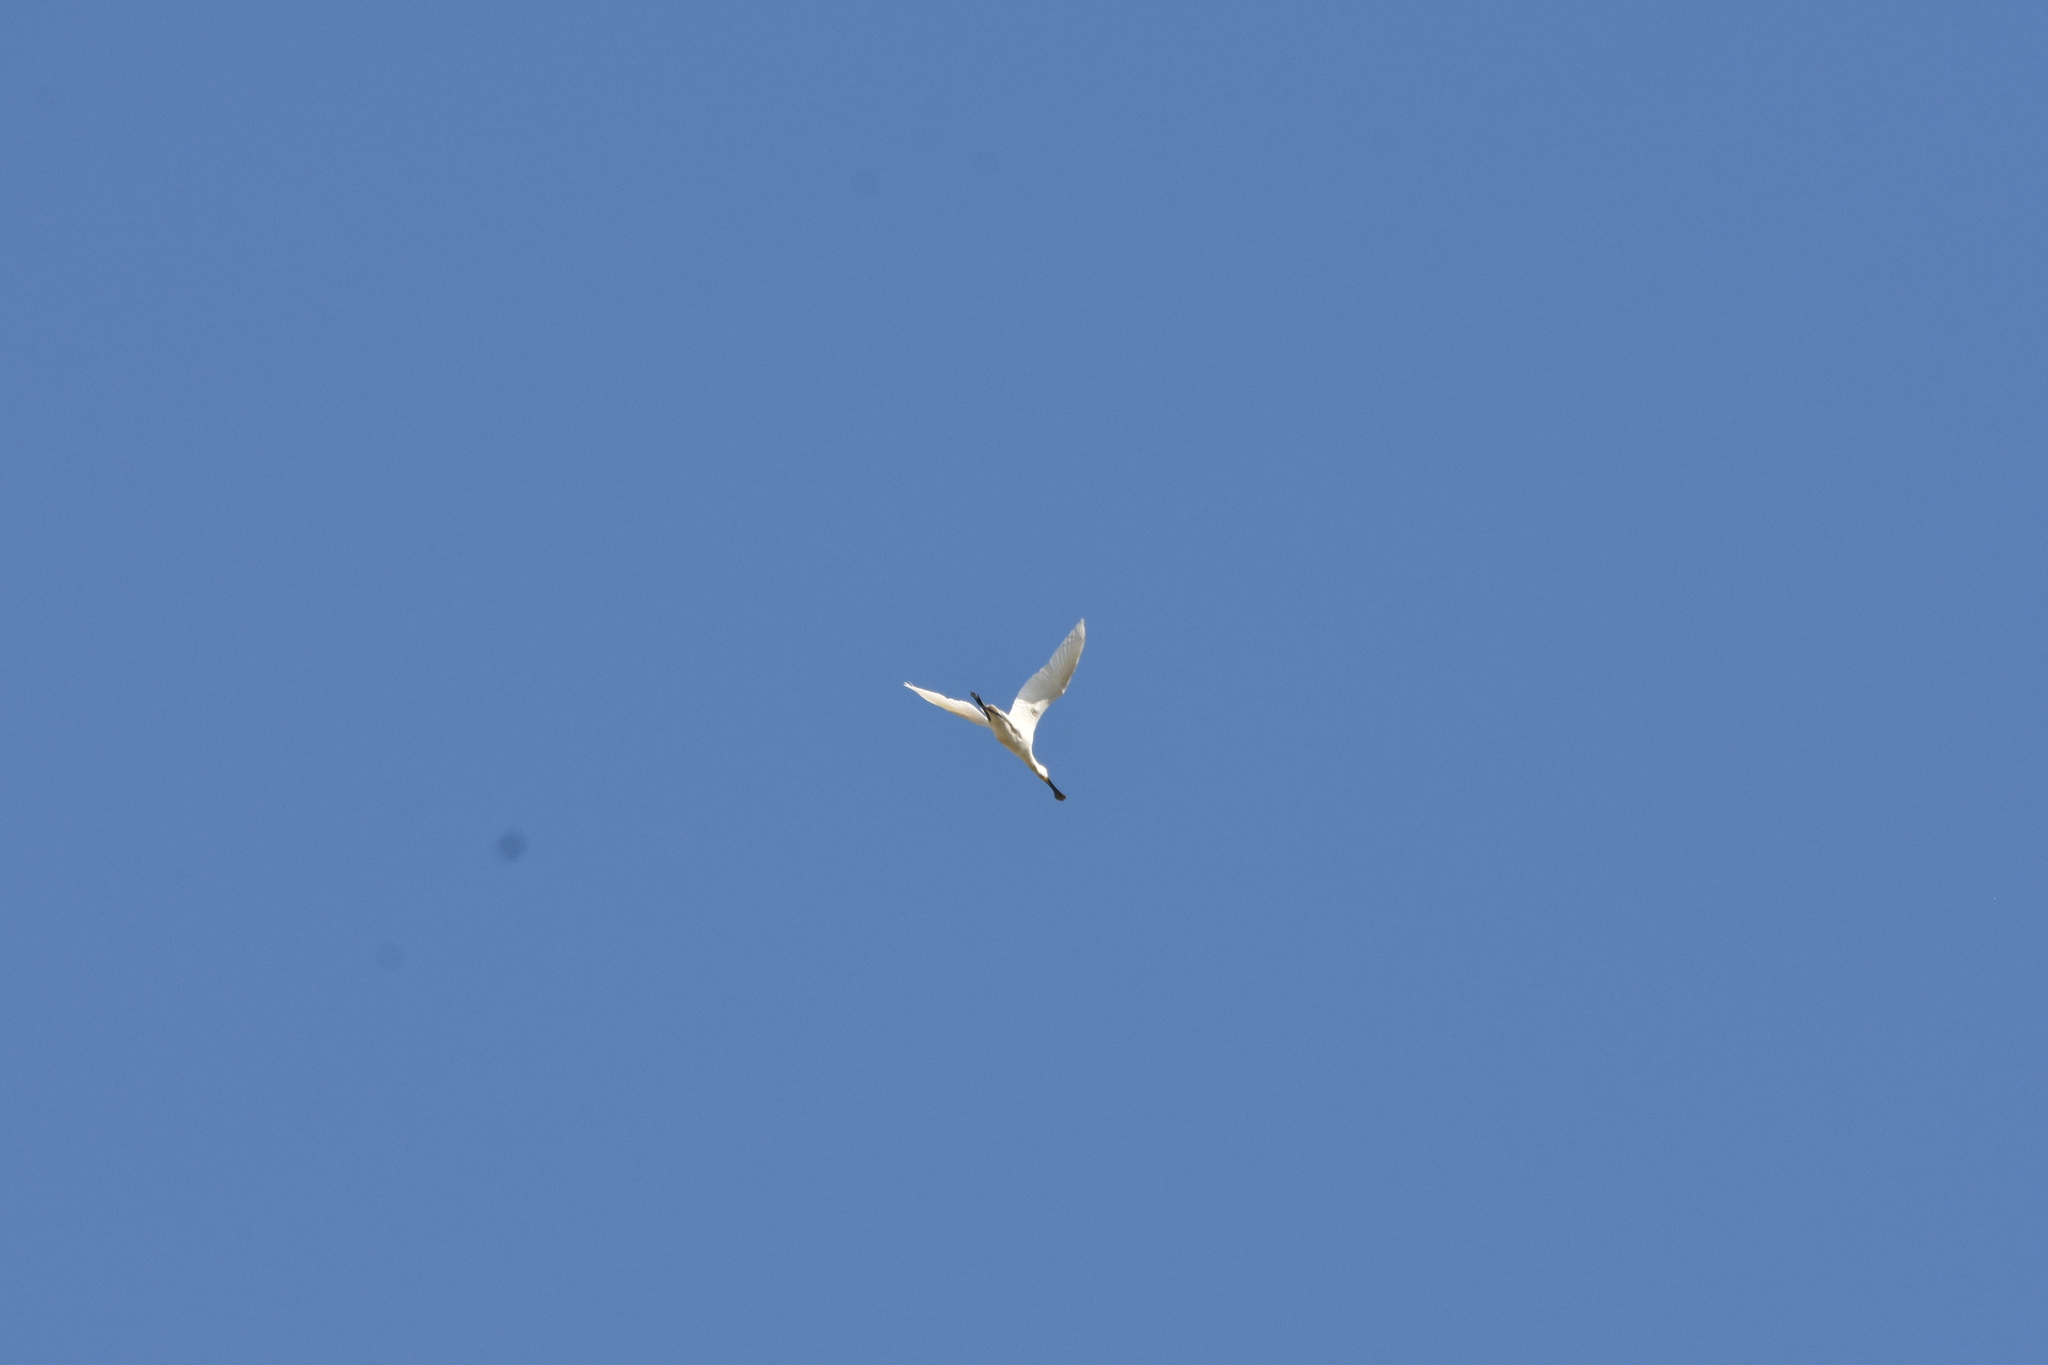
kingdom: Animalia
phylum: Chordata
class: Aves
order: Pelecaniformes
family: Threskiornithidae
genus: Platalea
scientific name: Platalea leucorodia
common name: Eurasian spoonbill
